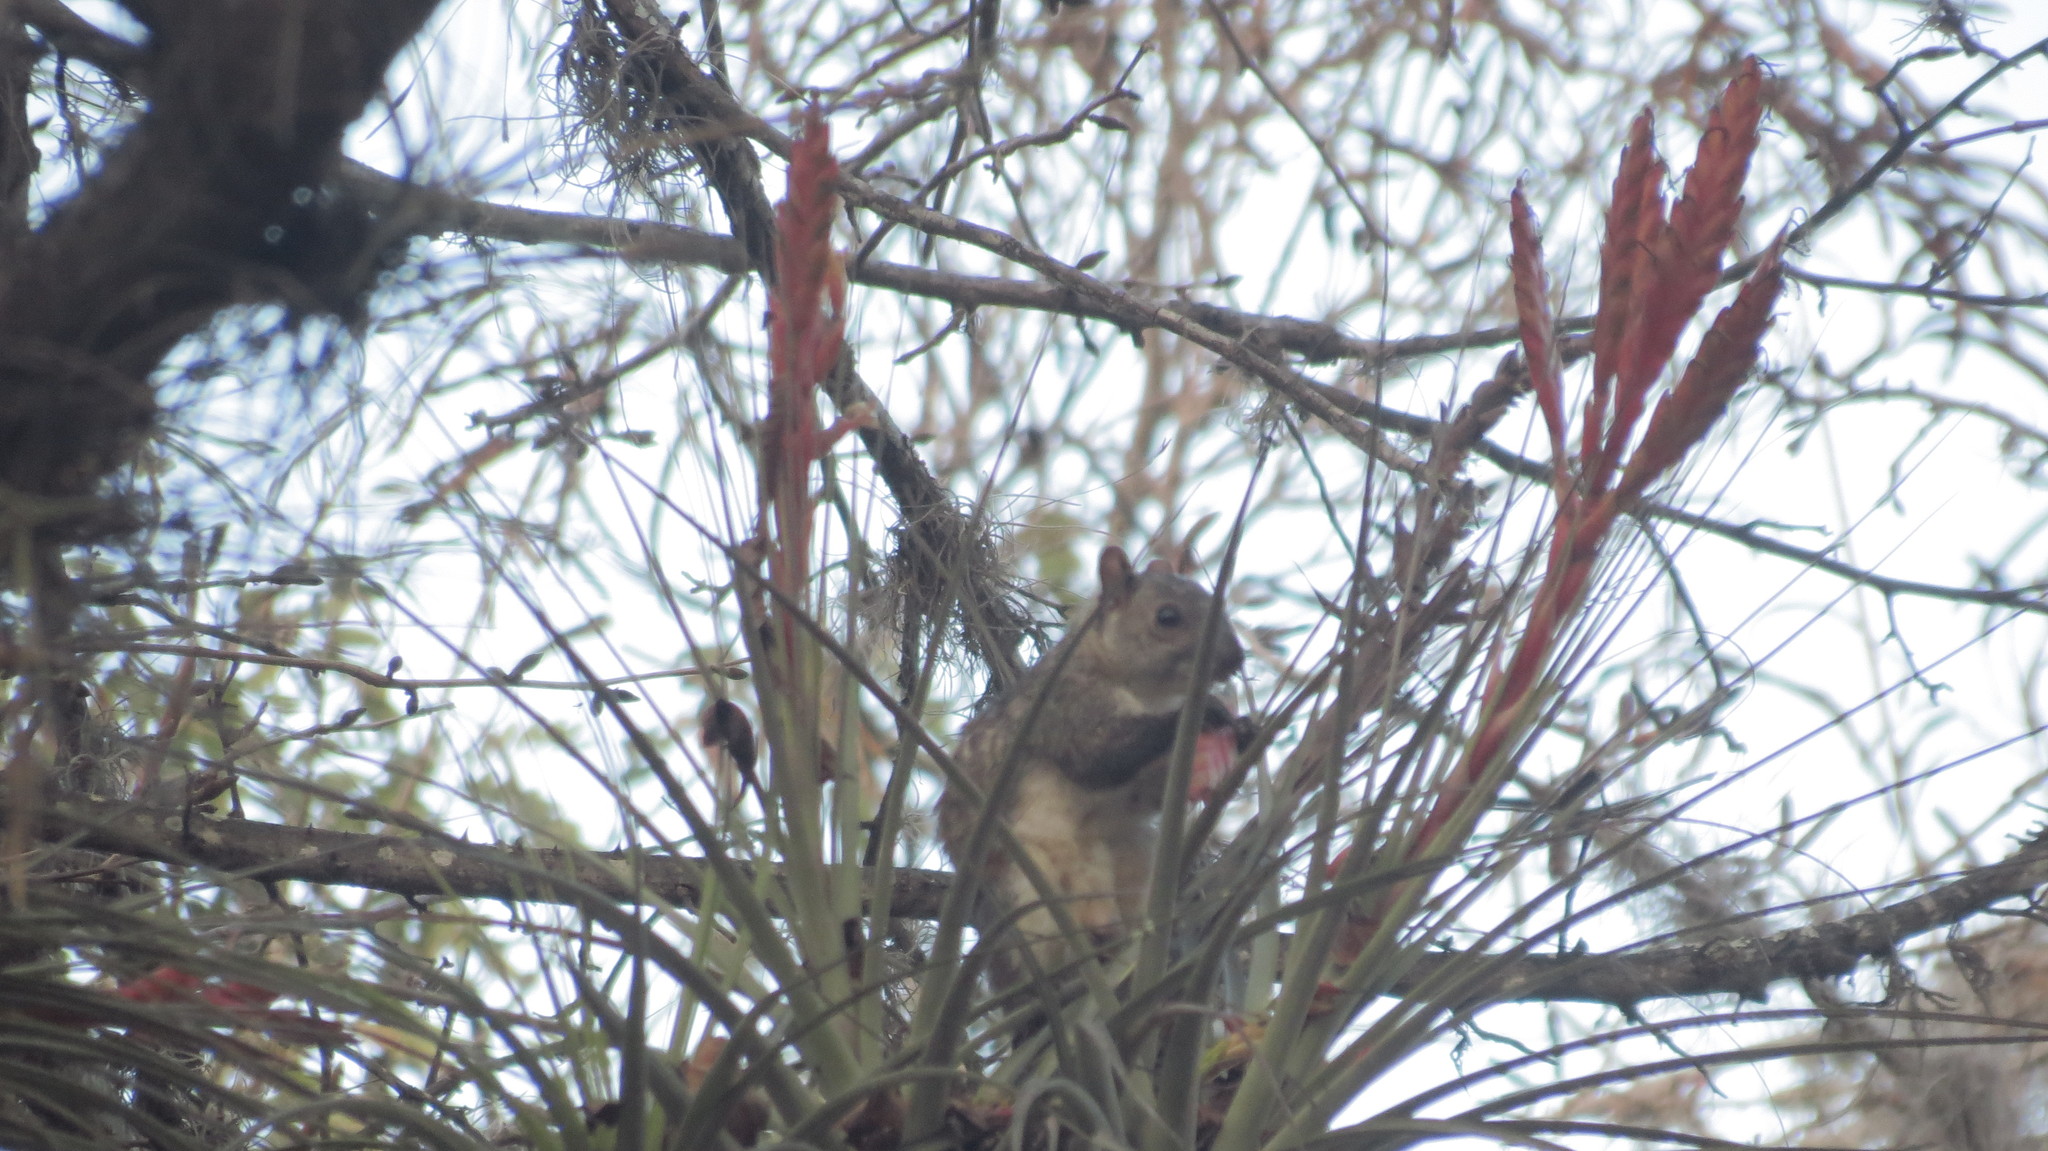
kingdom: Animalia
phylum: Chordata
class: Mammalia
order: Rodentia
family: Sciuridae
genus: Sciurus
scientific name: Sciurus variegatoides
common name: Variegated squirrel
